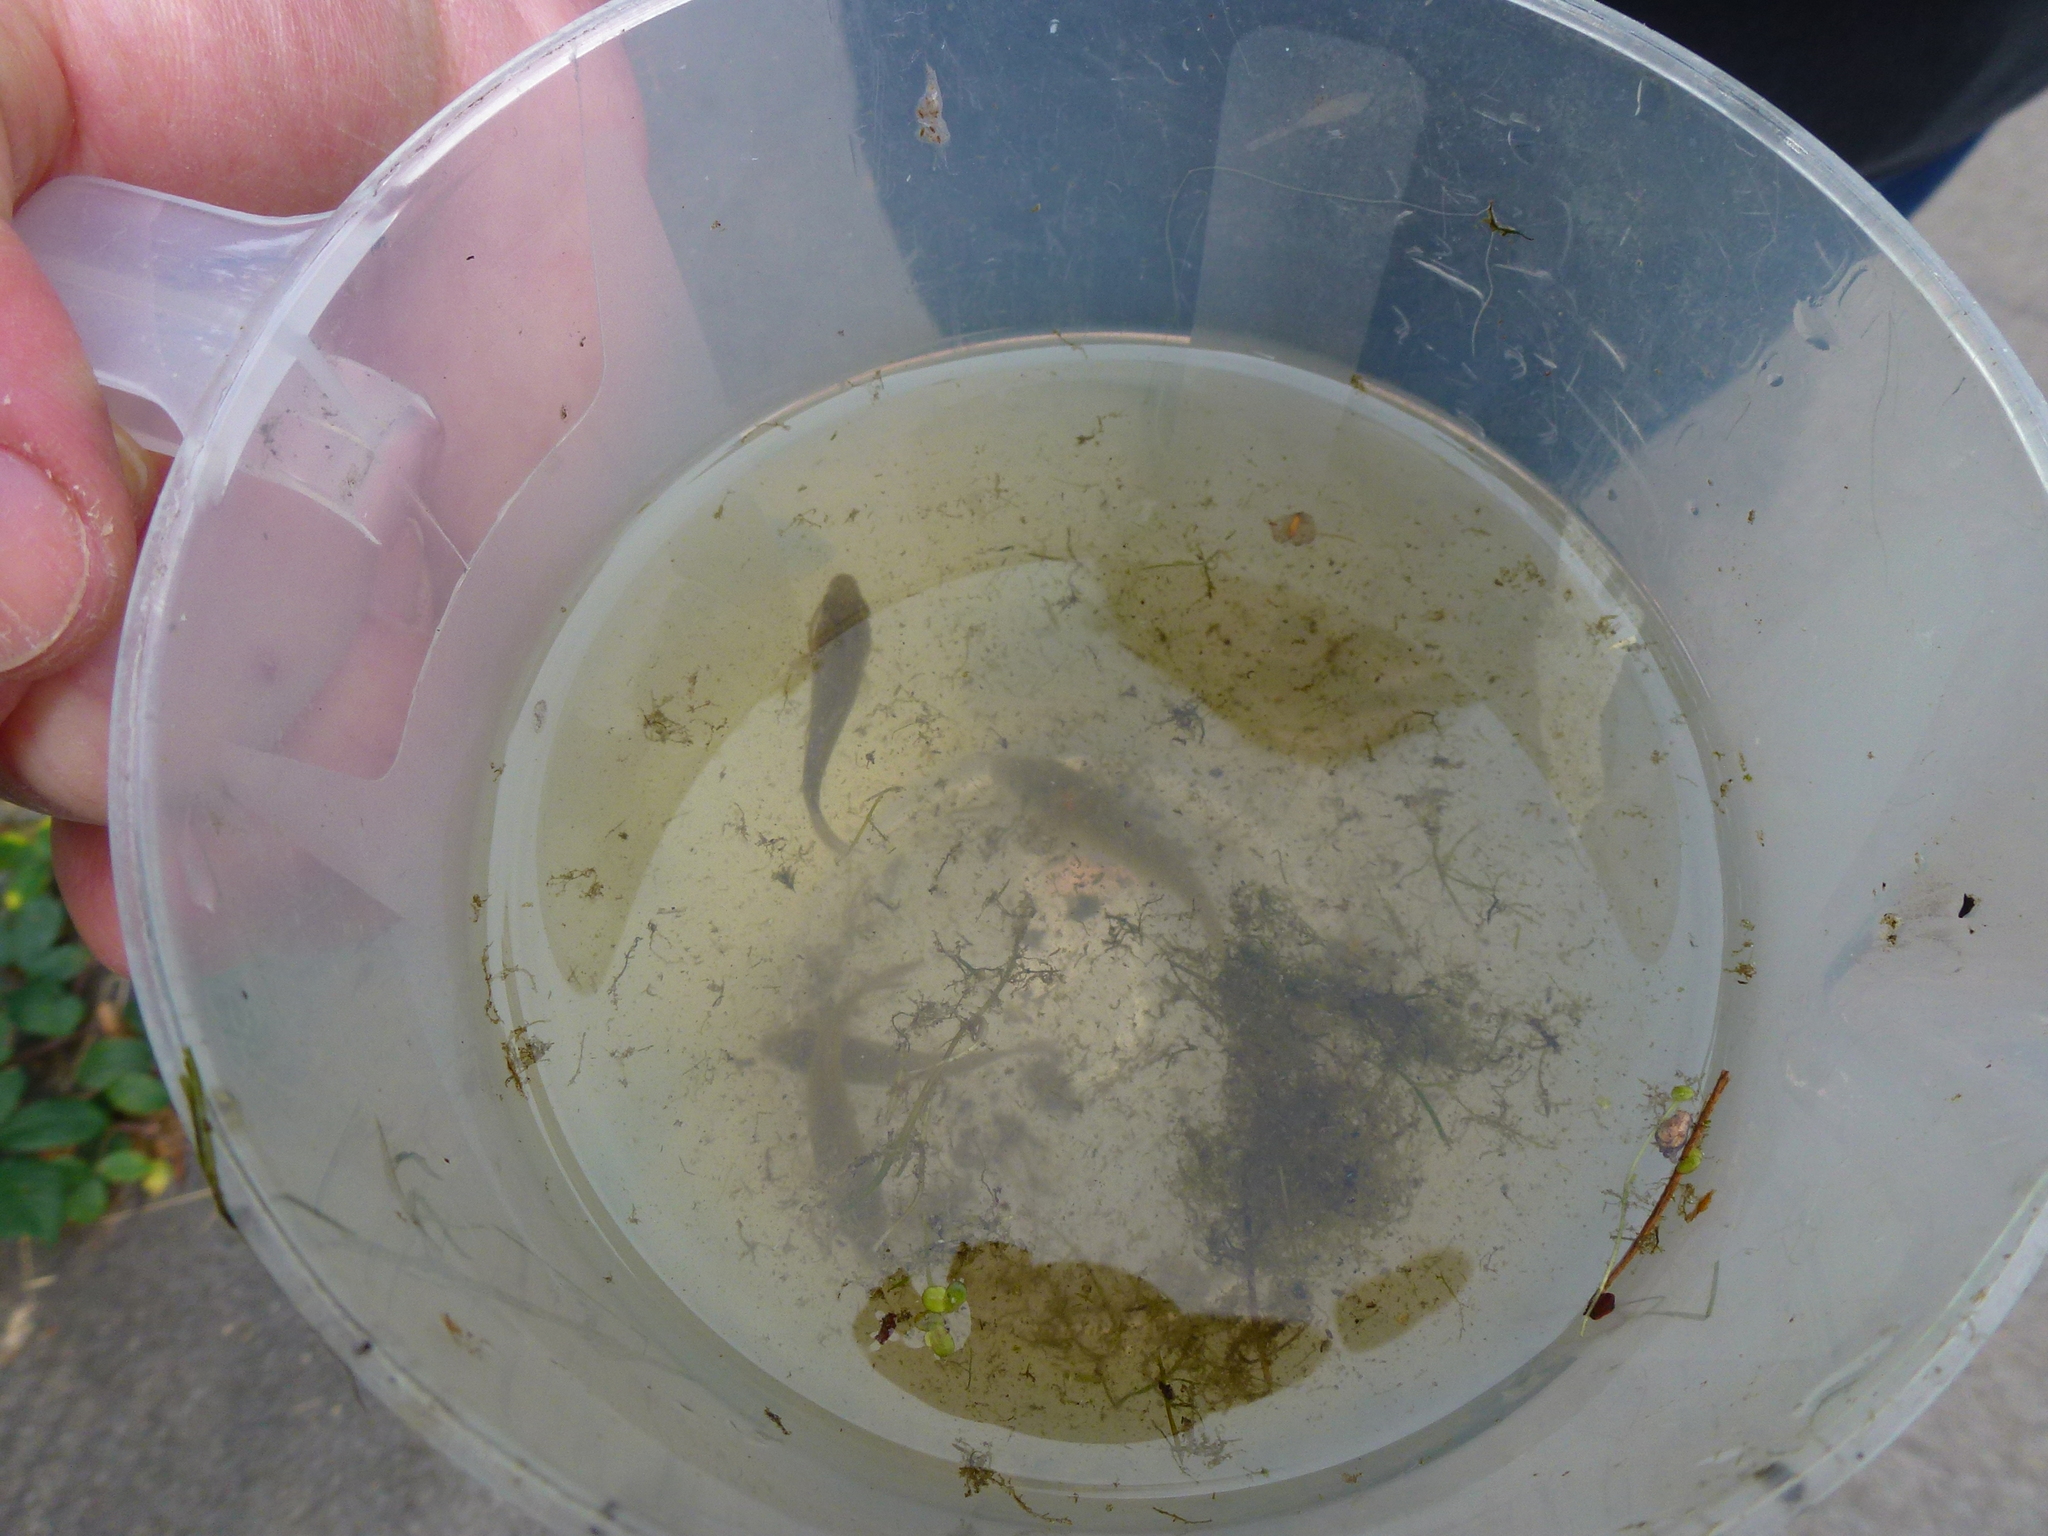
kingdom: Animalia
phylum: Chordata
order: Gasterosteiformes
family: Gasterosteidae
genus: Pungitius
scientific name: Pungitius pungitius
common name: Nine-spined stickleback
